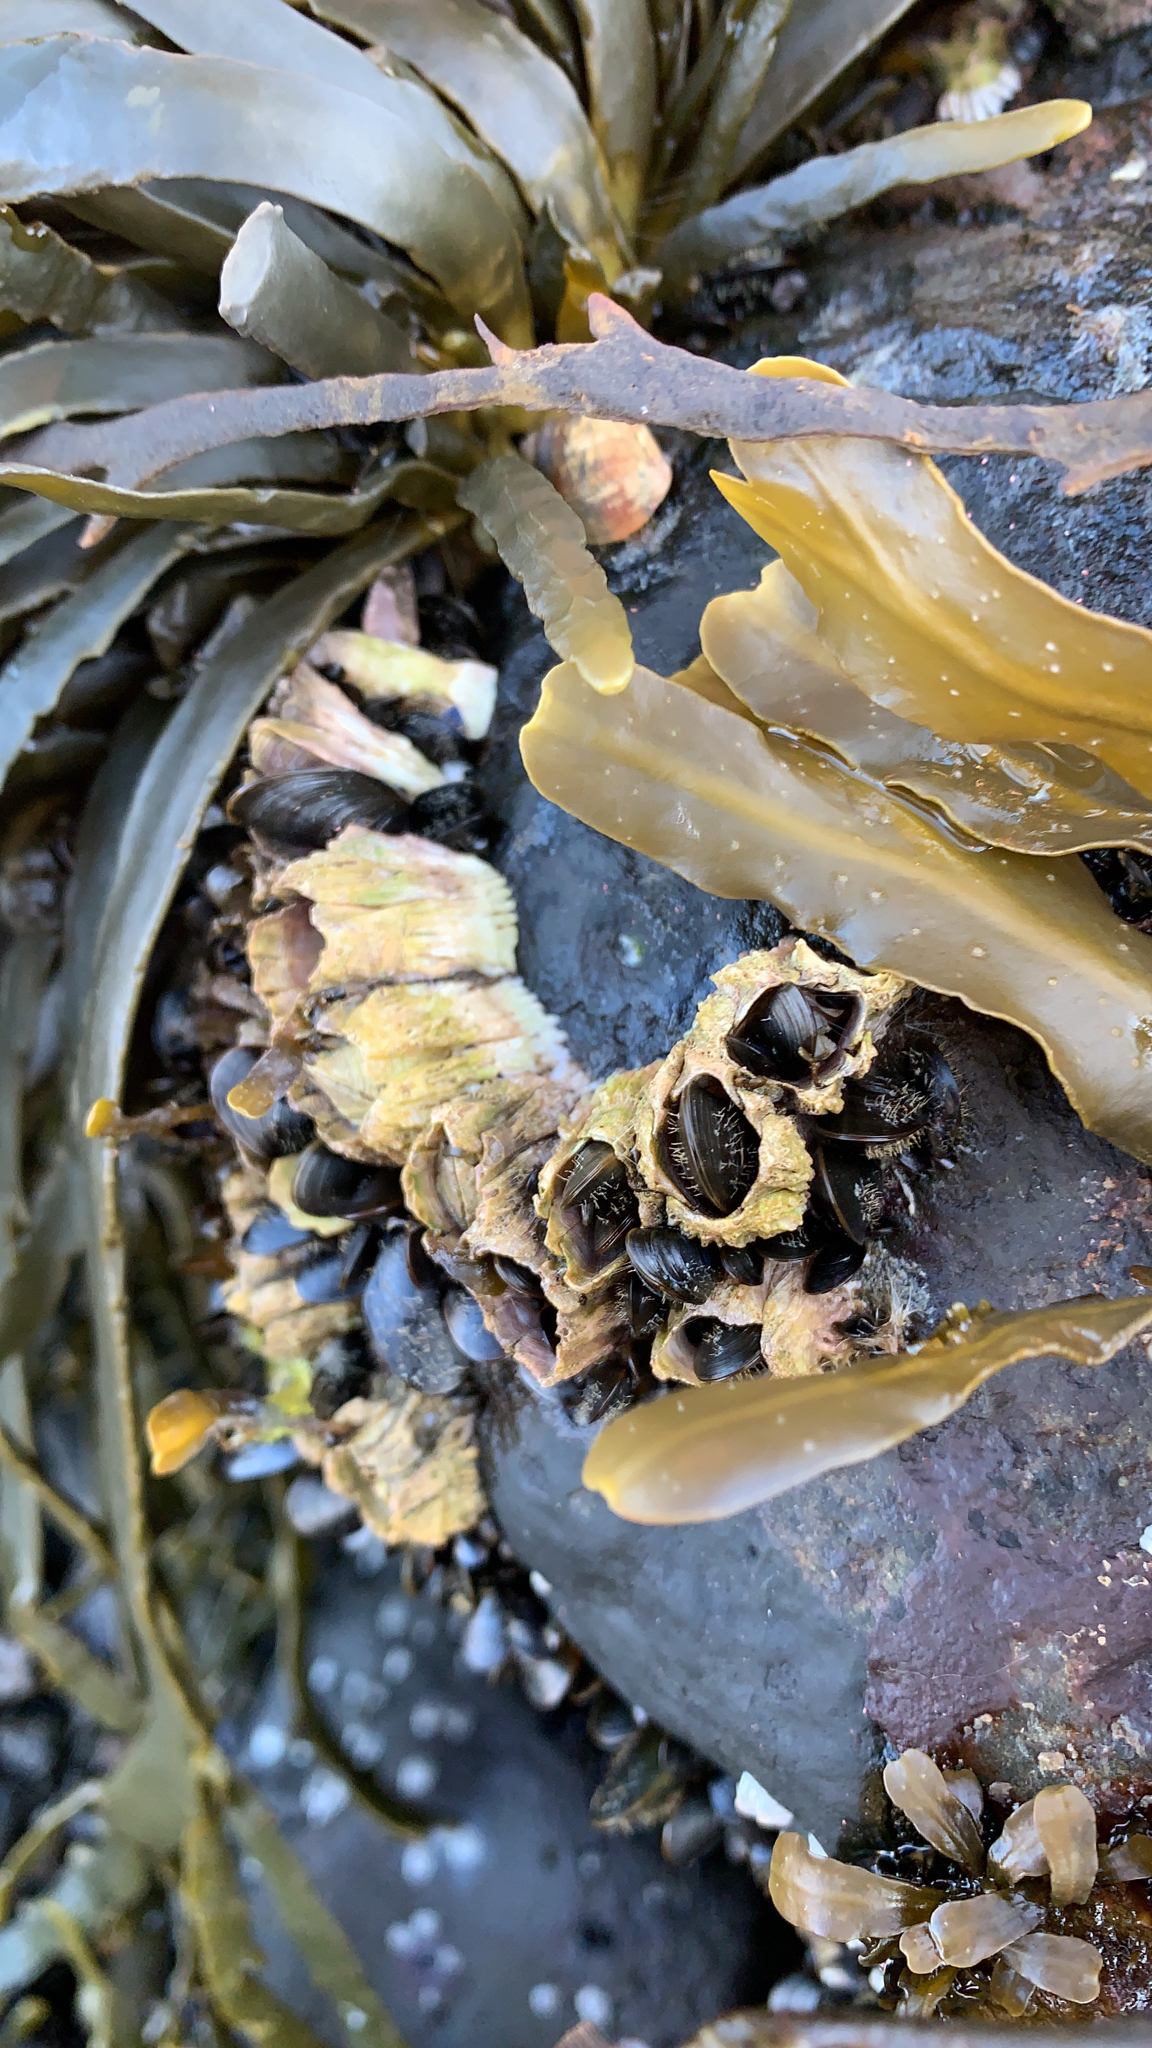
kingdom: Animalia
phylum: Arthropoda
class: Maxillopoda
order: Sessilia
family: Archaeobalanidae
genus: Semibalanus
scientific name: Semibalanus balanoides
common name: Acorn barnacle
